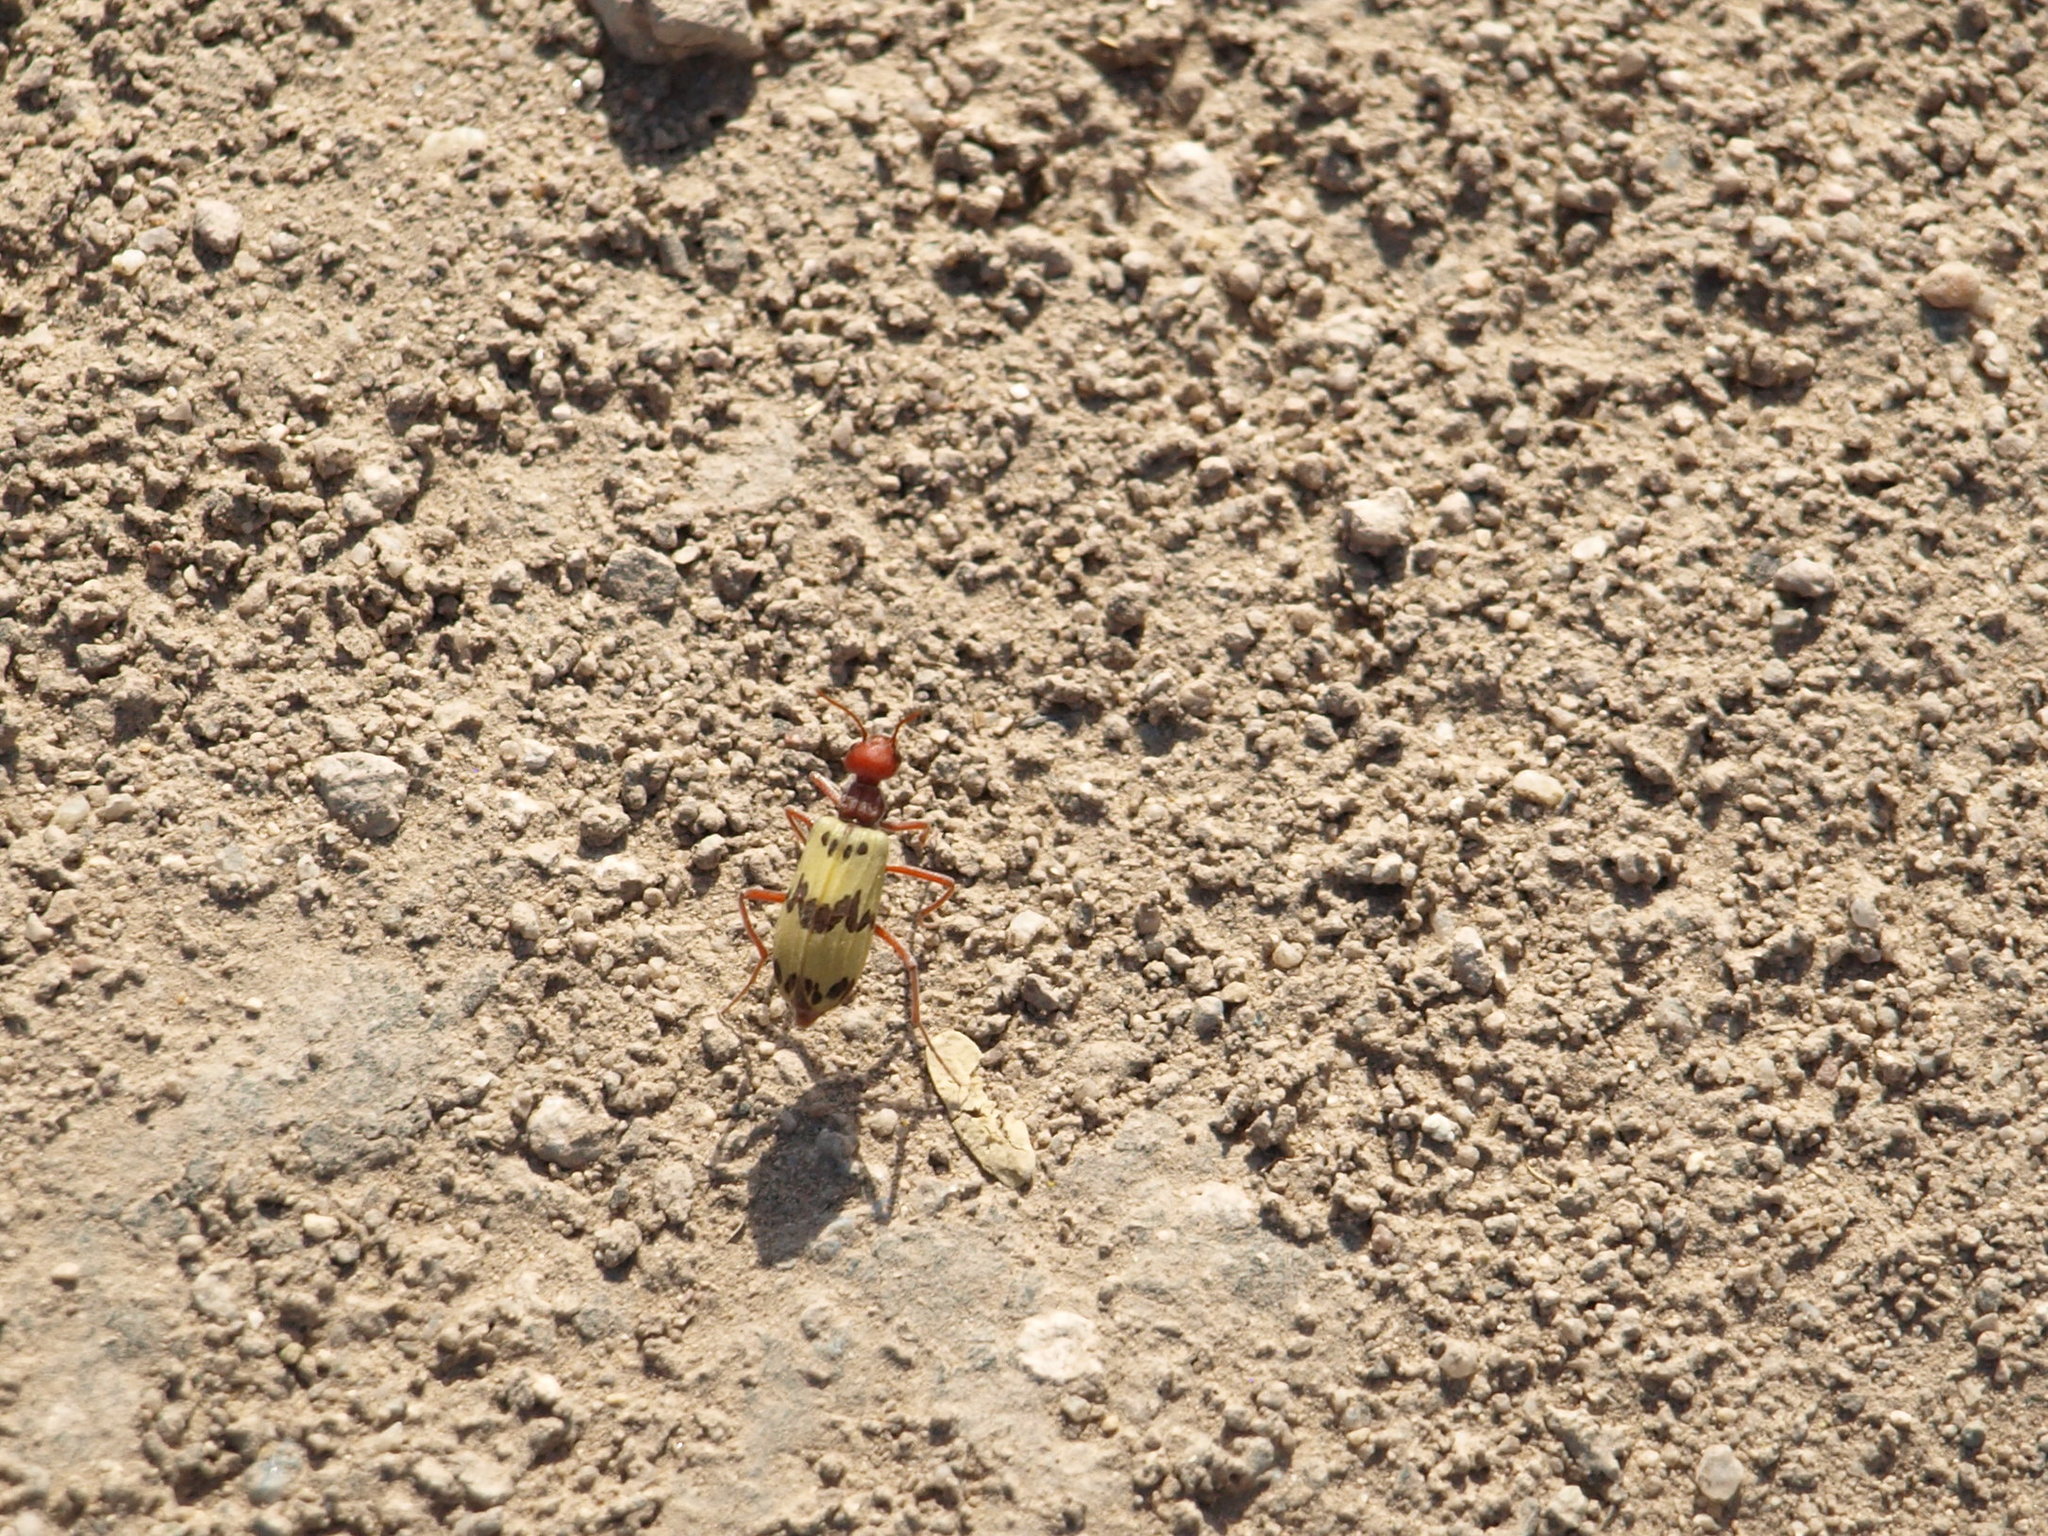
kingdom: Animalia
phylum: Arthropoda
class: Insecta
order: Coleoptera
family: Meloidae
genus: Pleuropasta
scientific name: Pleuropasta mirabilis
